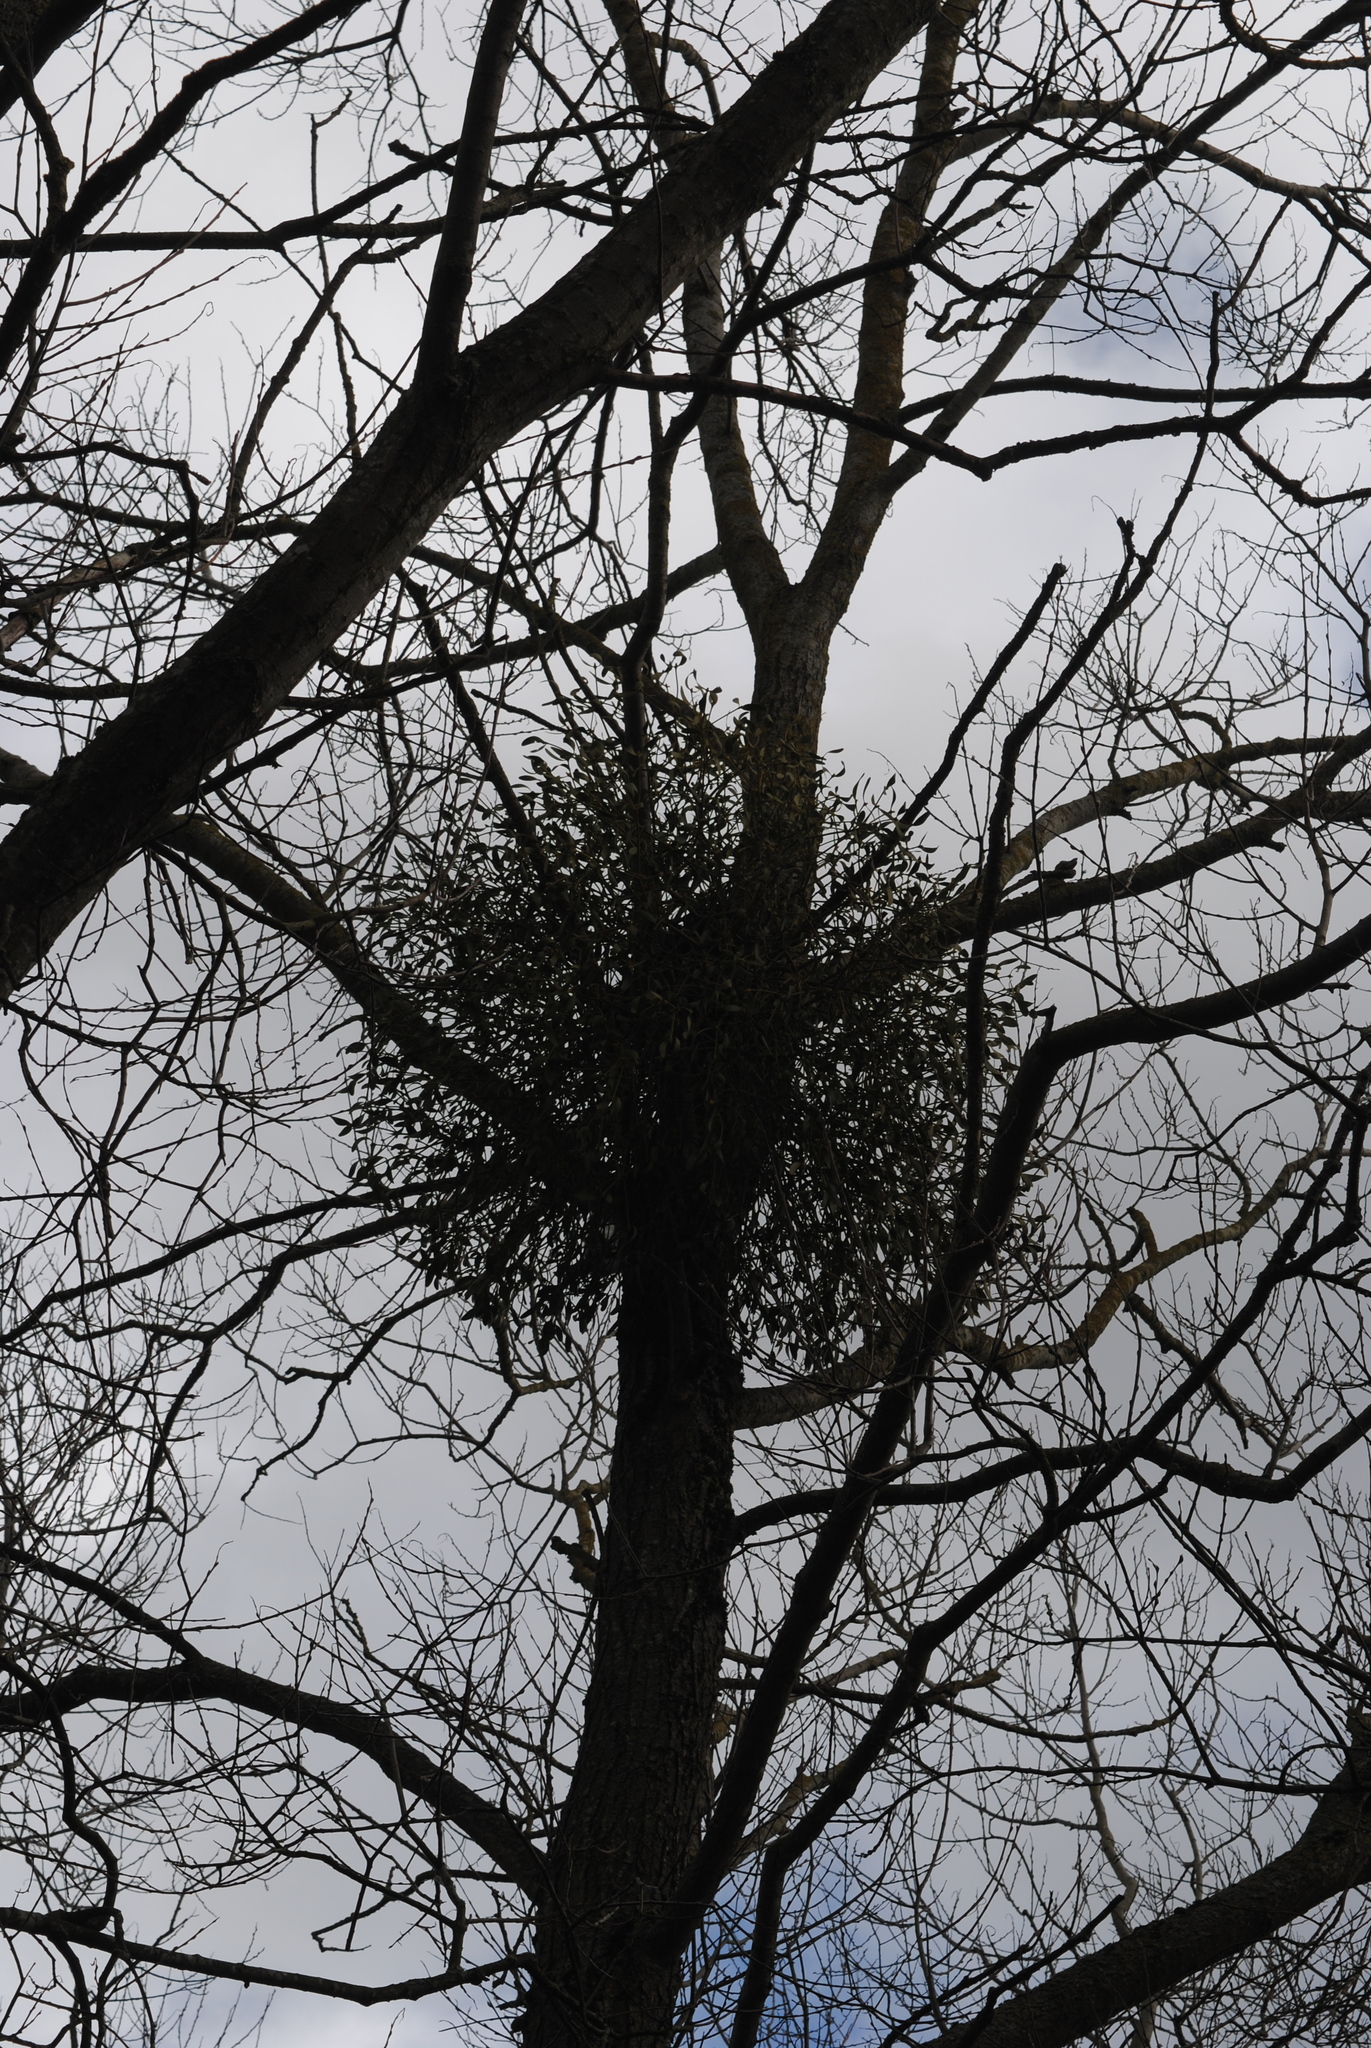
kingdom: Plantae
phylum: Tracheophyta
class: Magnoliopsida
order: Santalales
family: Viscaceae
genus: Viscum
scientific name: Viscum album
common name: Mistletoe
